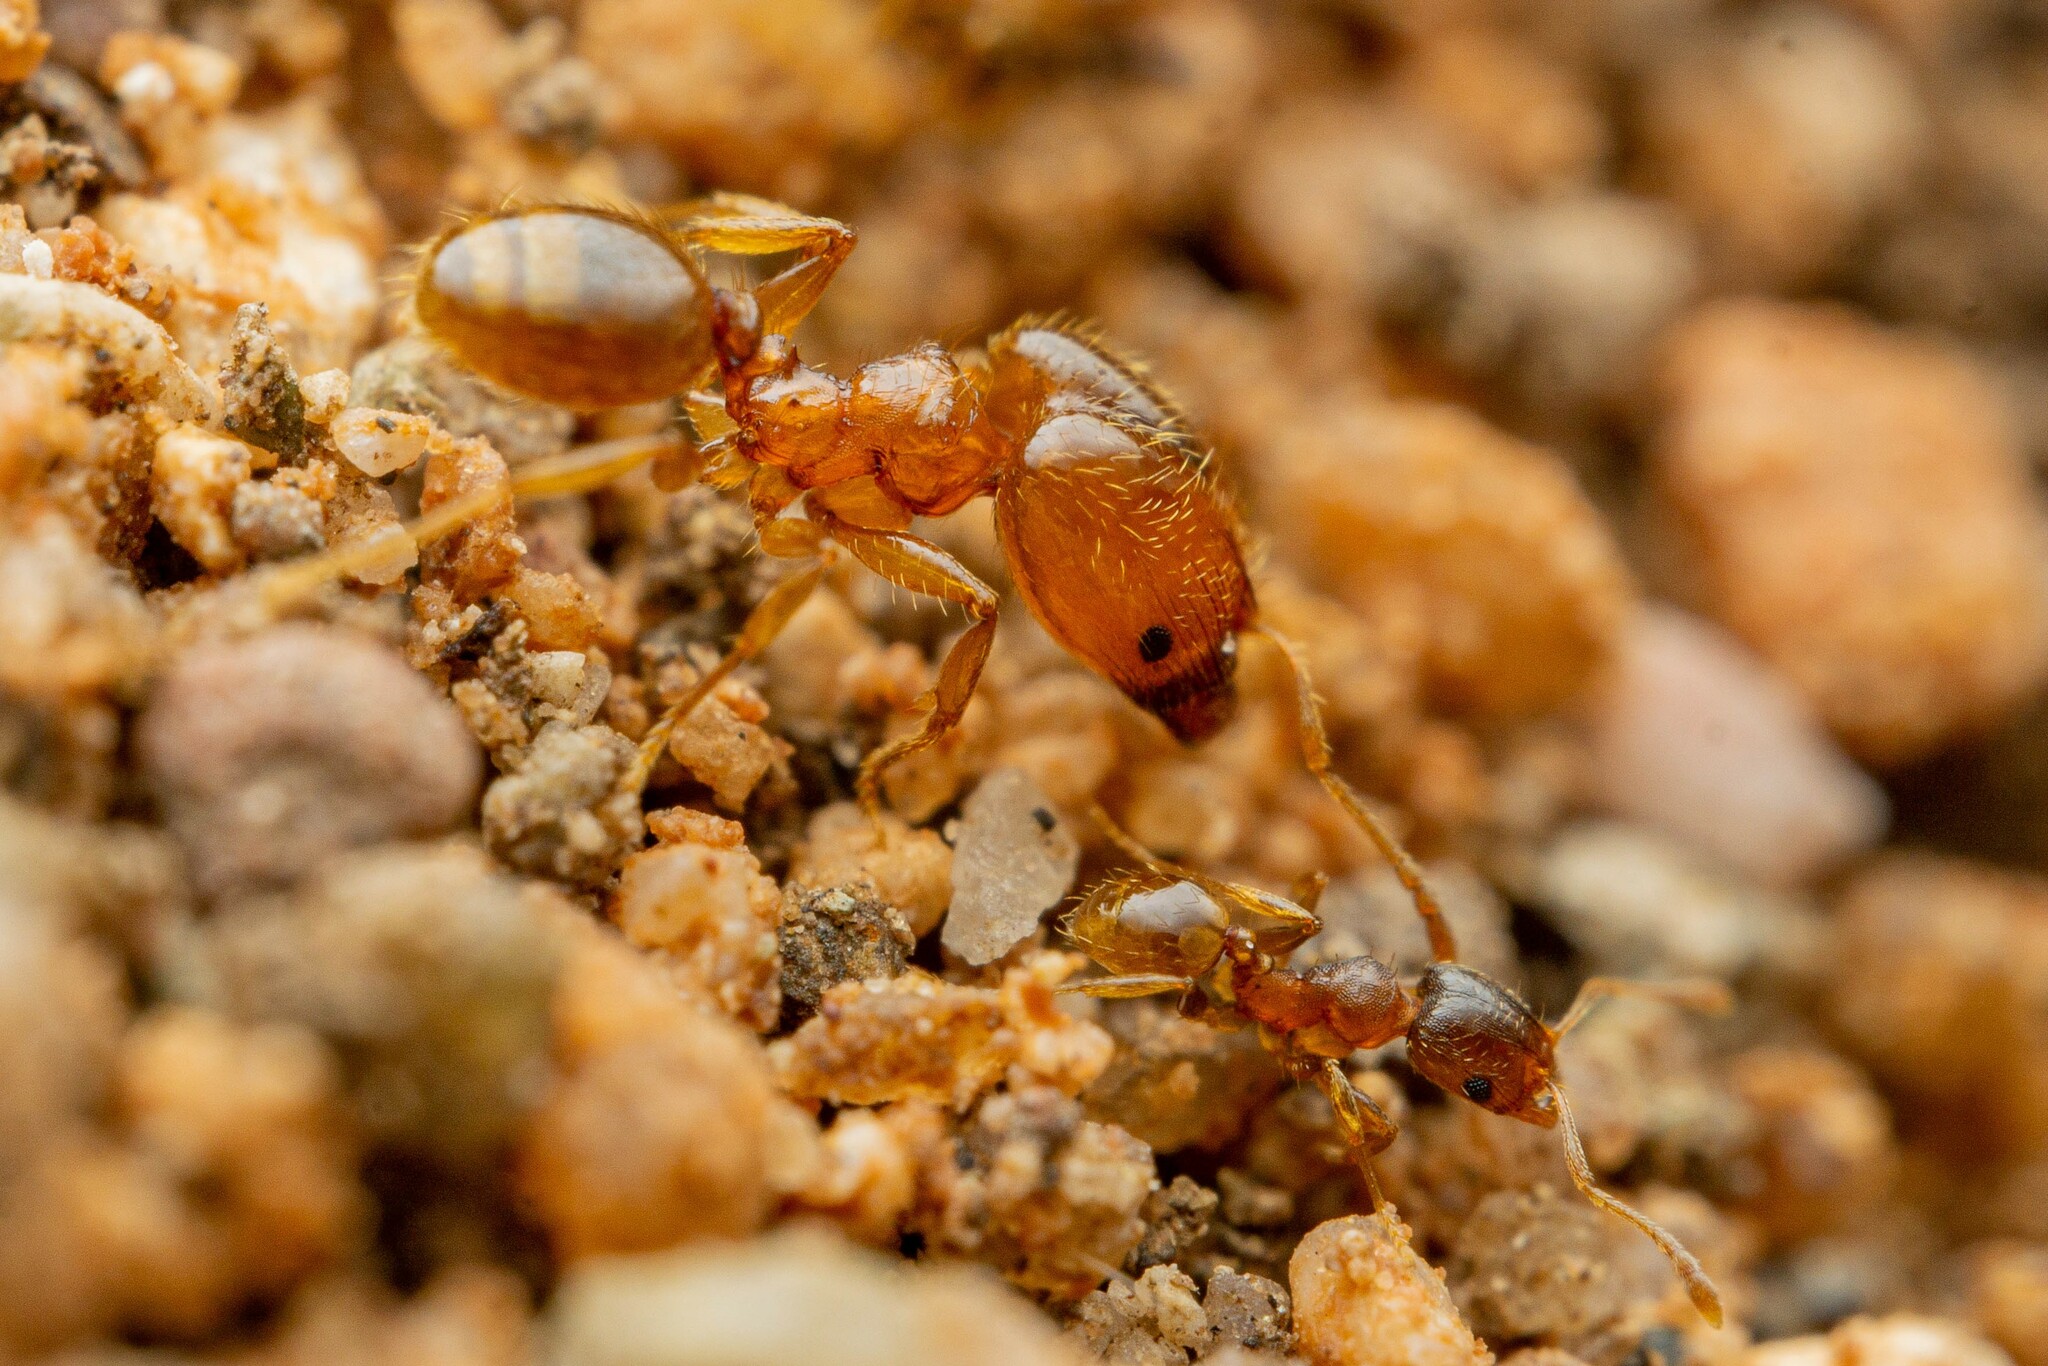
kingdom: Animalia
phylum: Arthropoda
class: Insecta
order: Hymenoptera
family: Formicidae
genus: Pheidole
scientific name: Pheidole cerebrosior
